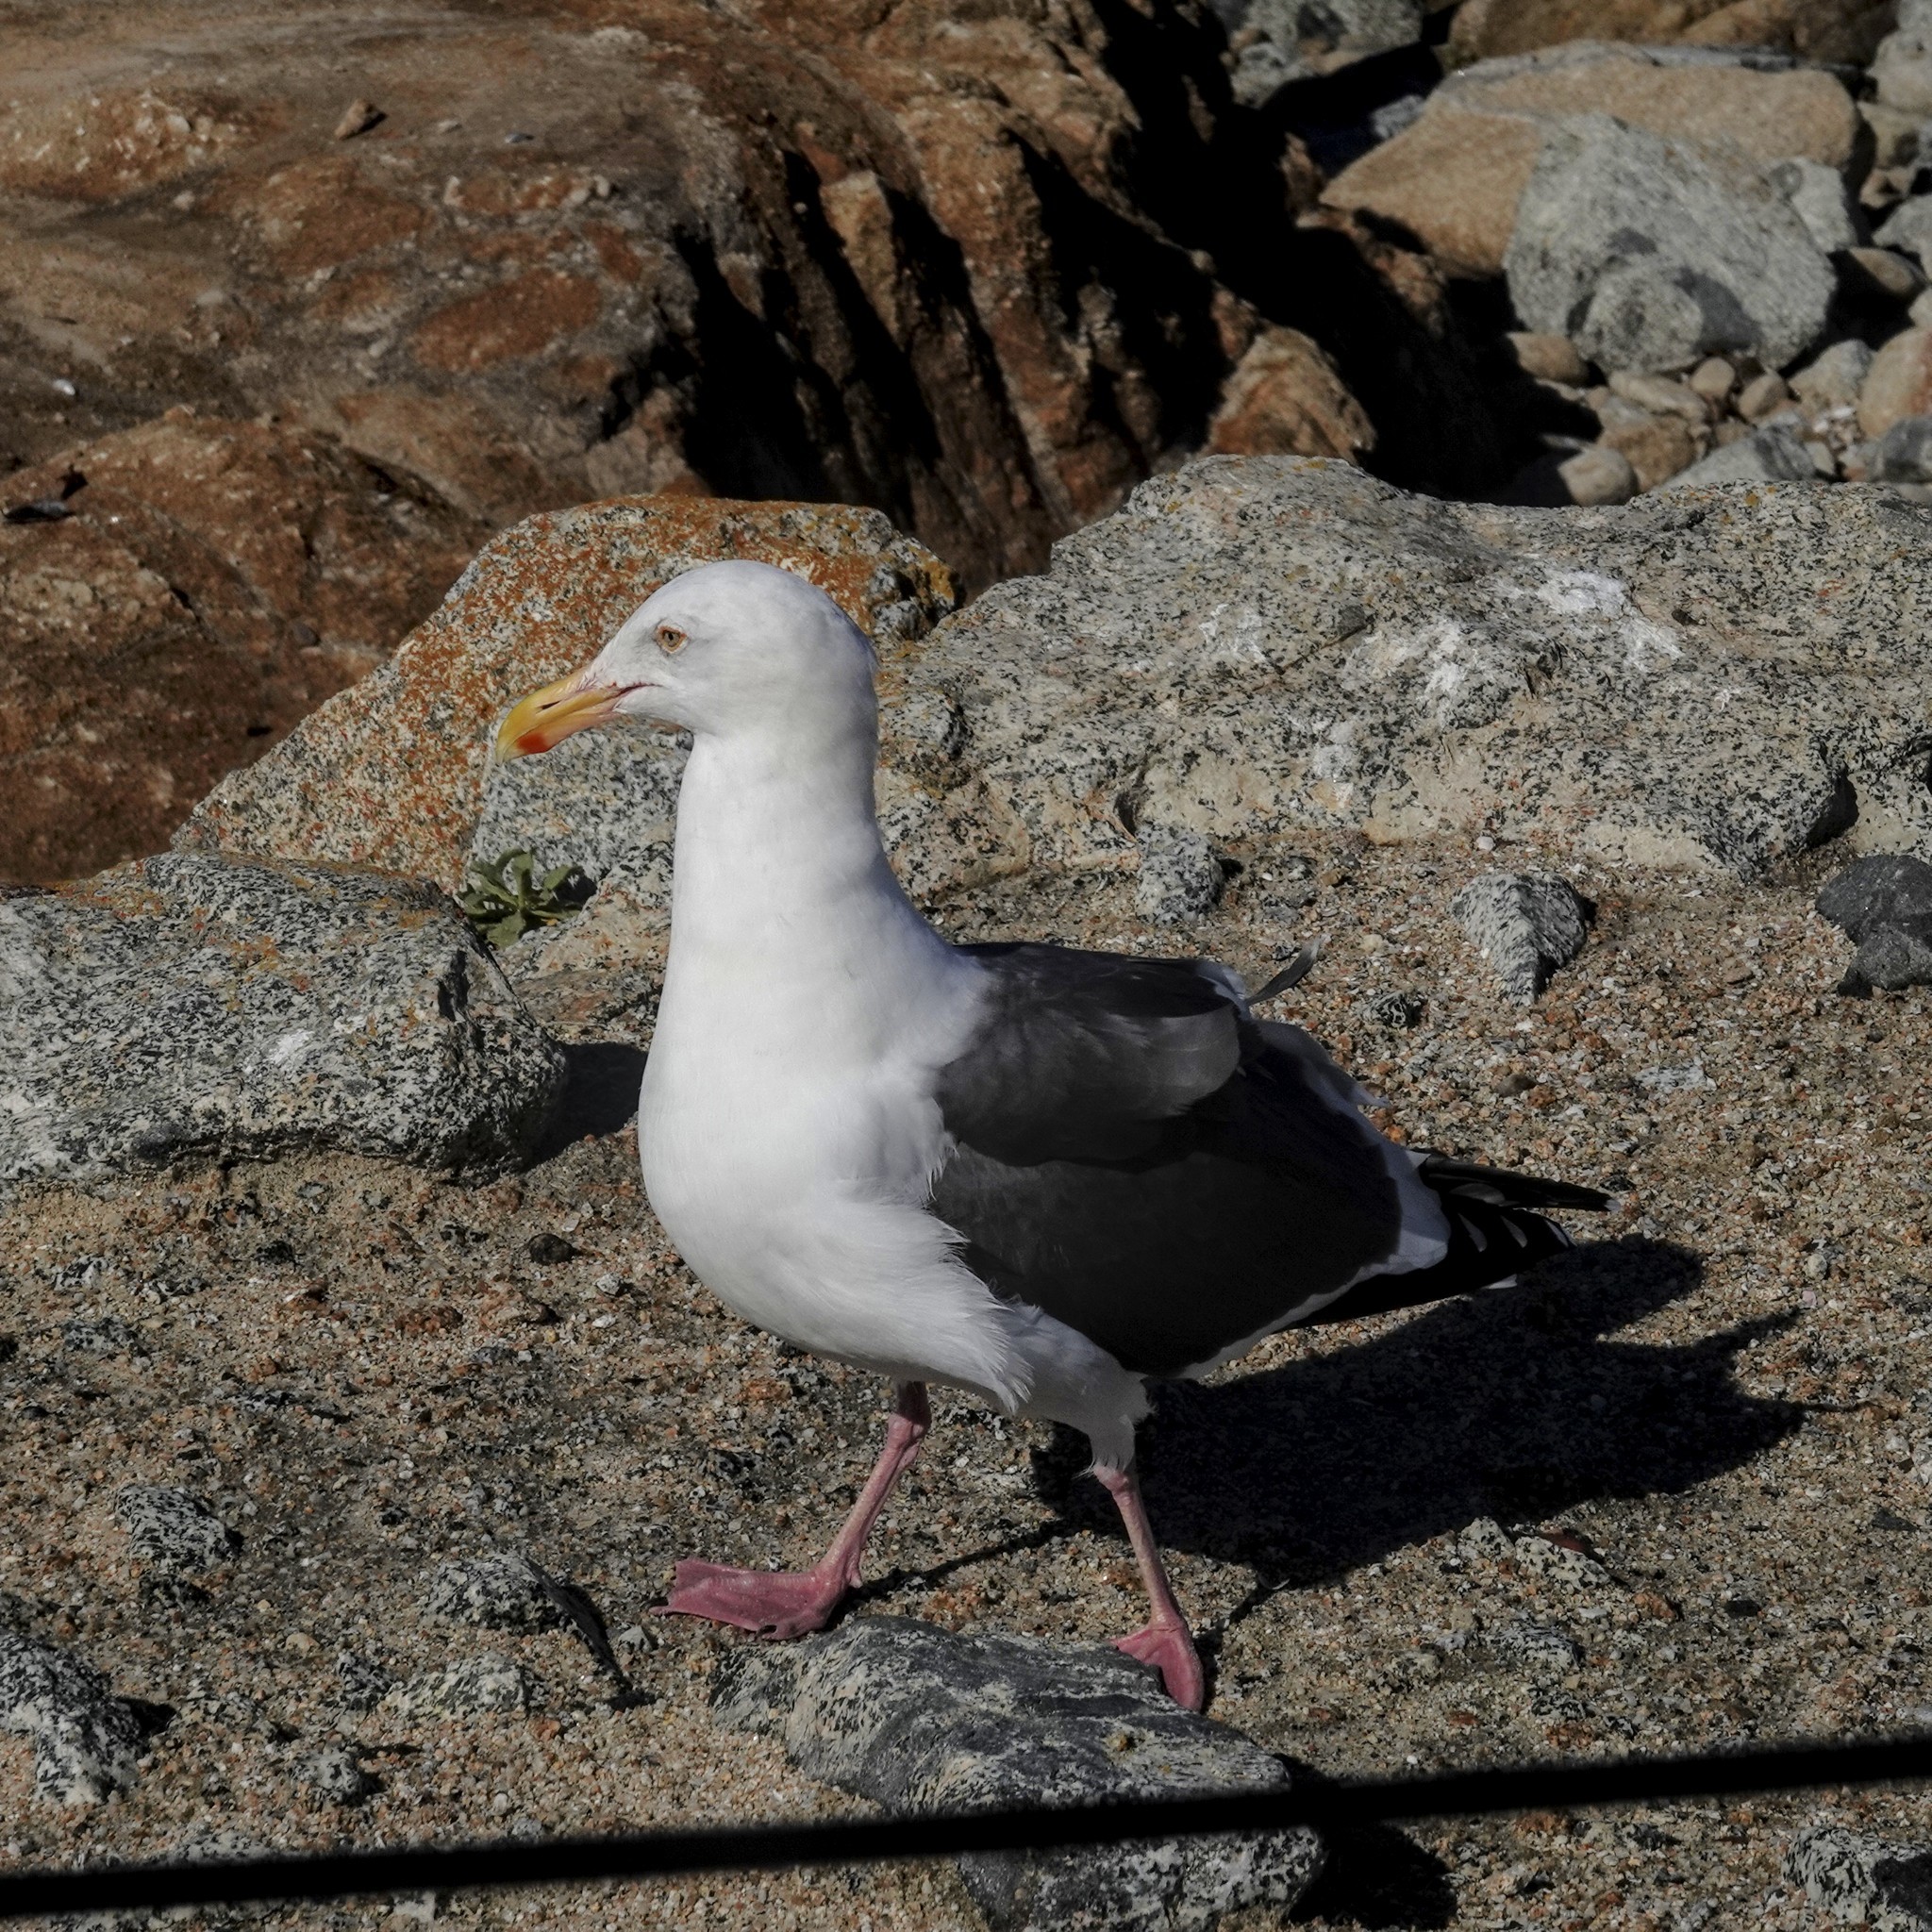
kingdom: Animalia
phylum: Chordata
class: Aves
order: Charadriiformes
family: Laridae
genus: Larus
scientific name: Larus occidentalis
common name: Western gull
